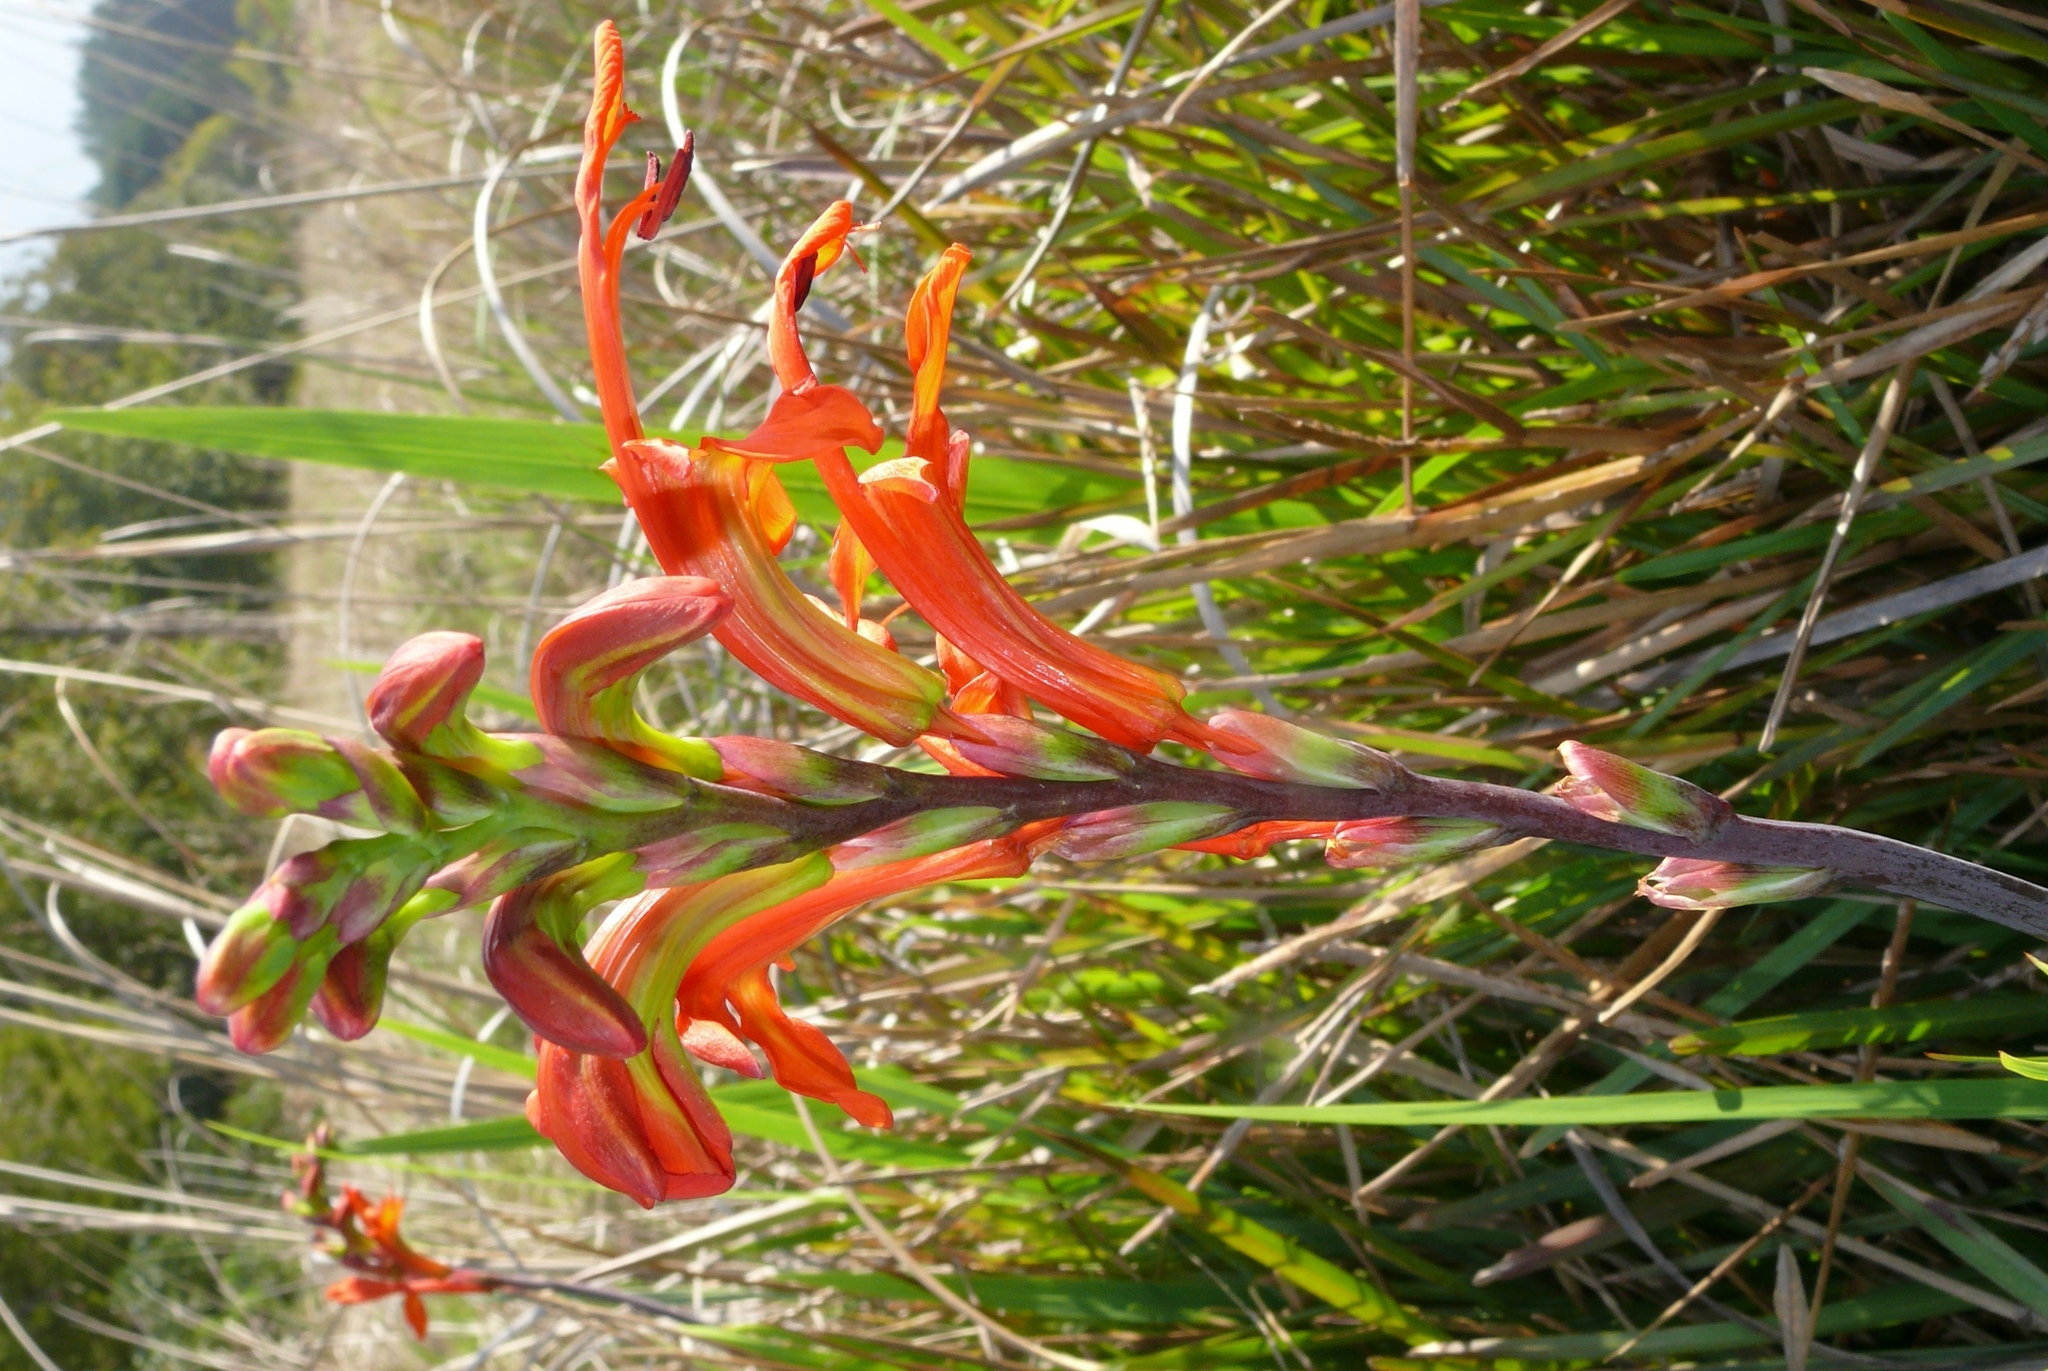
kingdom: Plantae
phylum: Tracheophyta
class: Liliopsida
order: Asparagales
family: Iridaceae
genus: Chasmanthe
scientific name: Chasmanthe aethiopica
